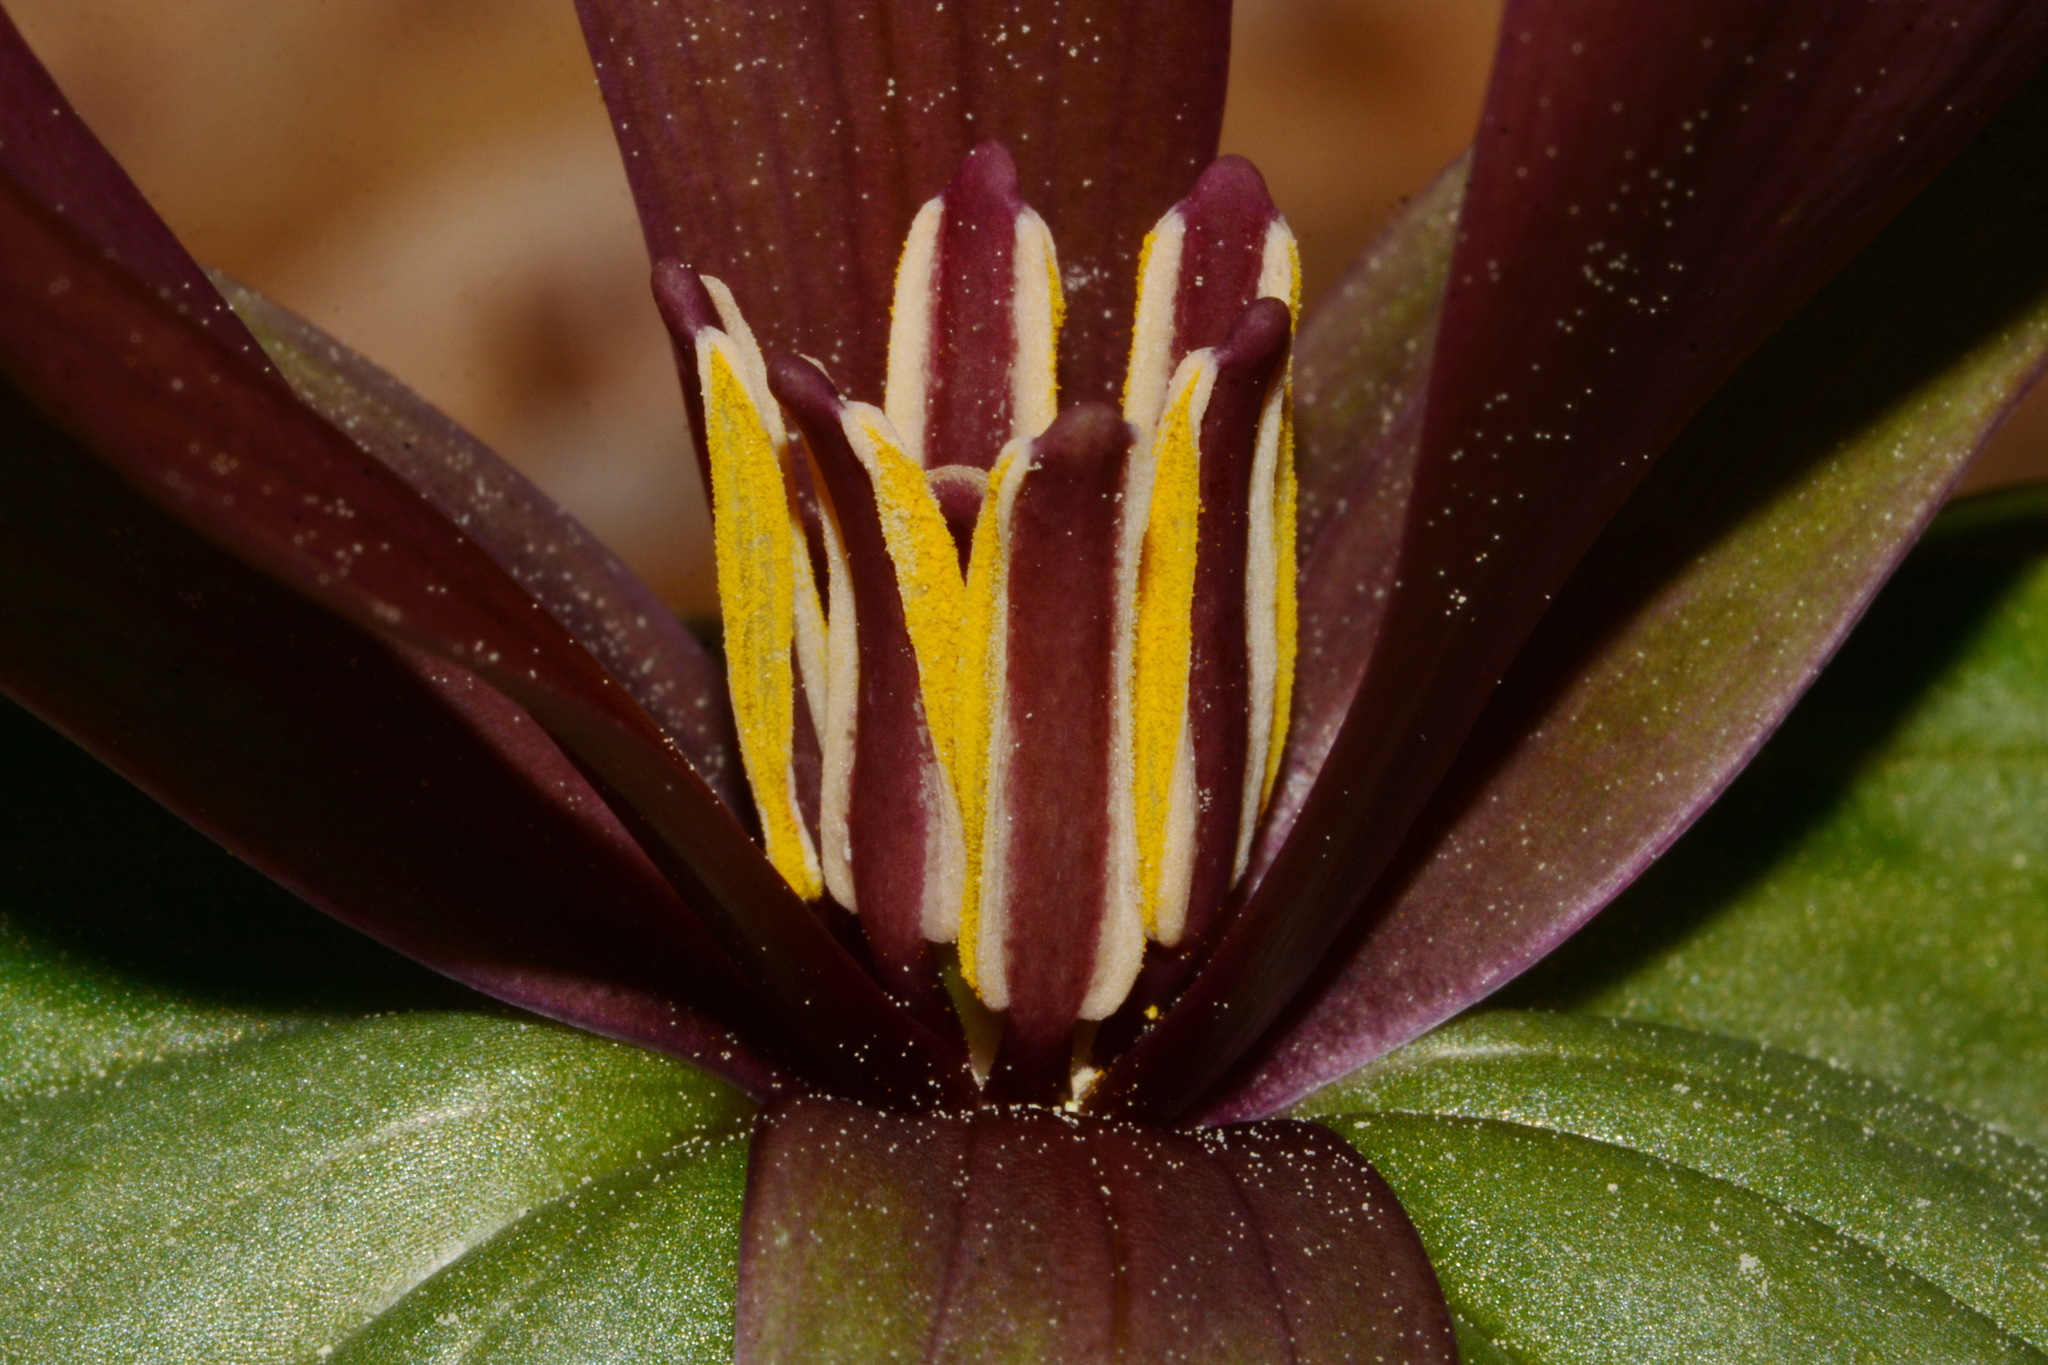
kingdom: Plantae
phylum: Tracheophyta
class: Liliopsida
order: Liliales
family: Melanthiaceae
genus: Trillium
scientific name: Trillium underwoodii
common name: Longbract wakerobin
